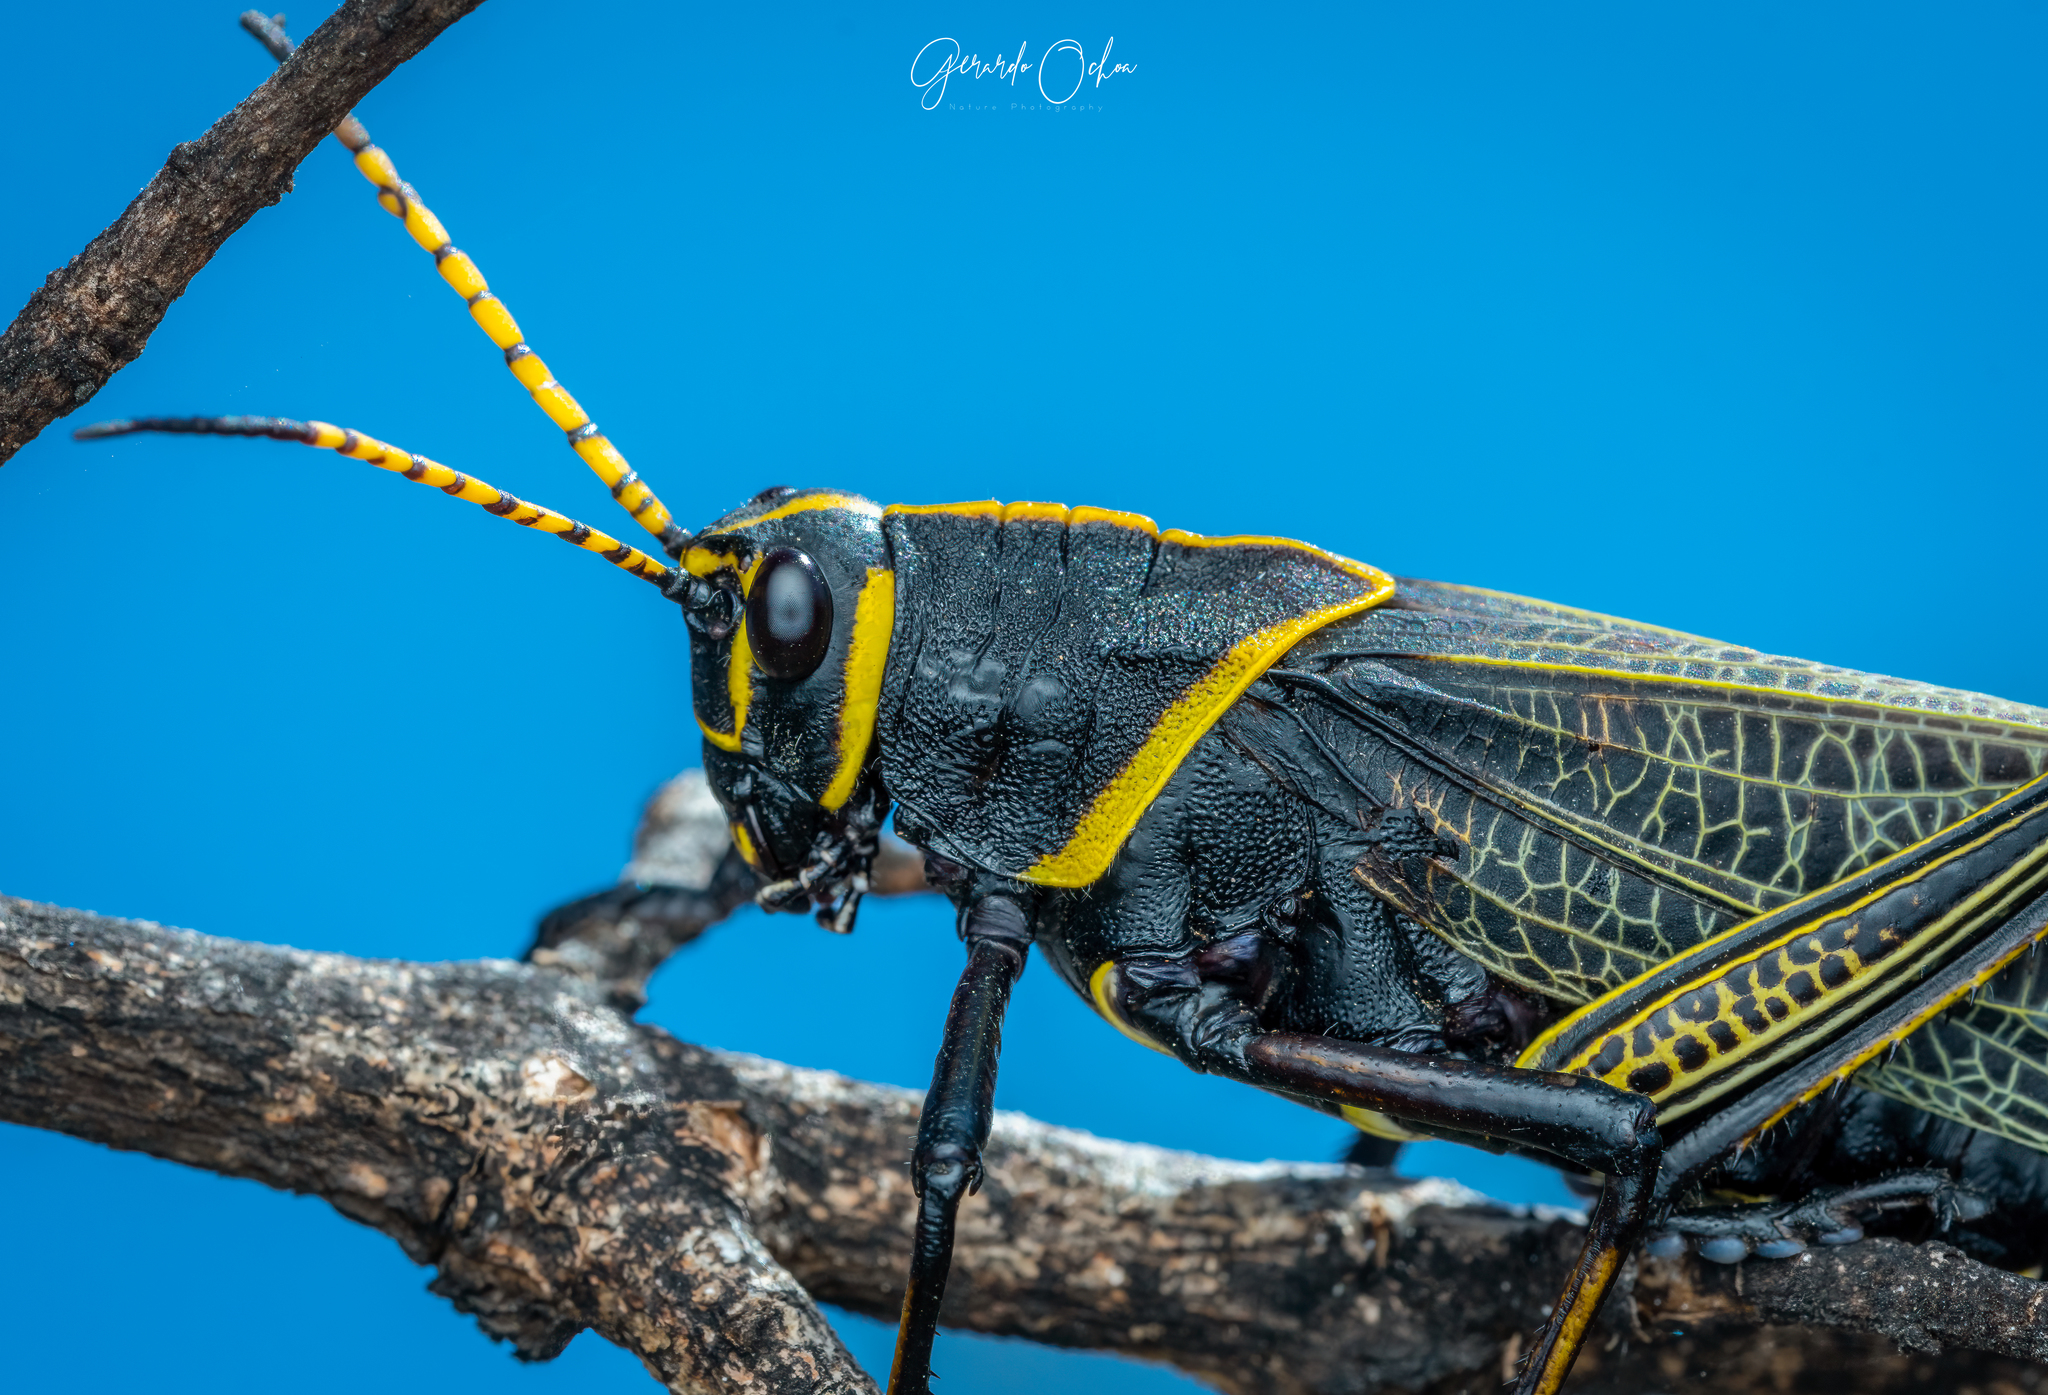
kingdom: Animalia
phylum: Arthropoda
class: Insecta
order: Orthoptera
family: Romaleidae
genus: Romalea
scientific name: Romalea
